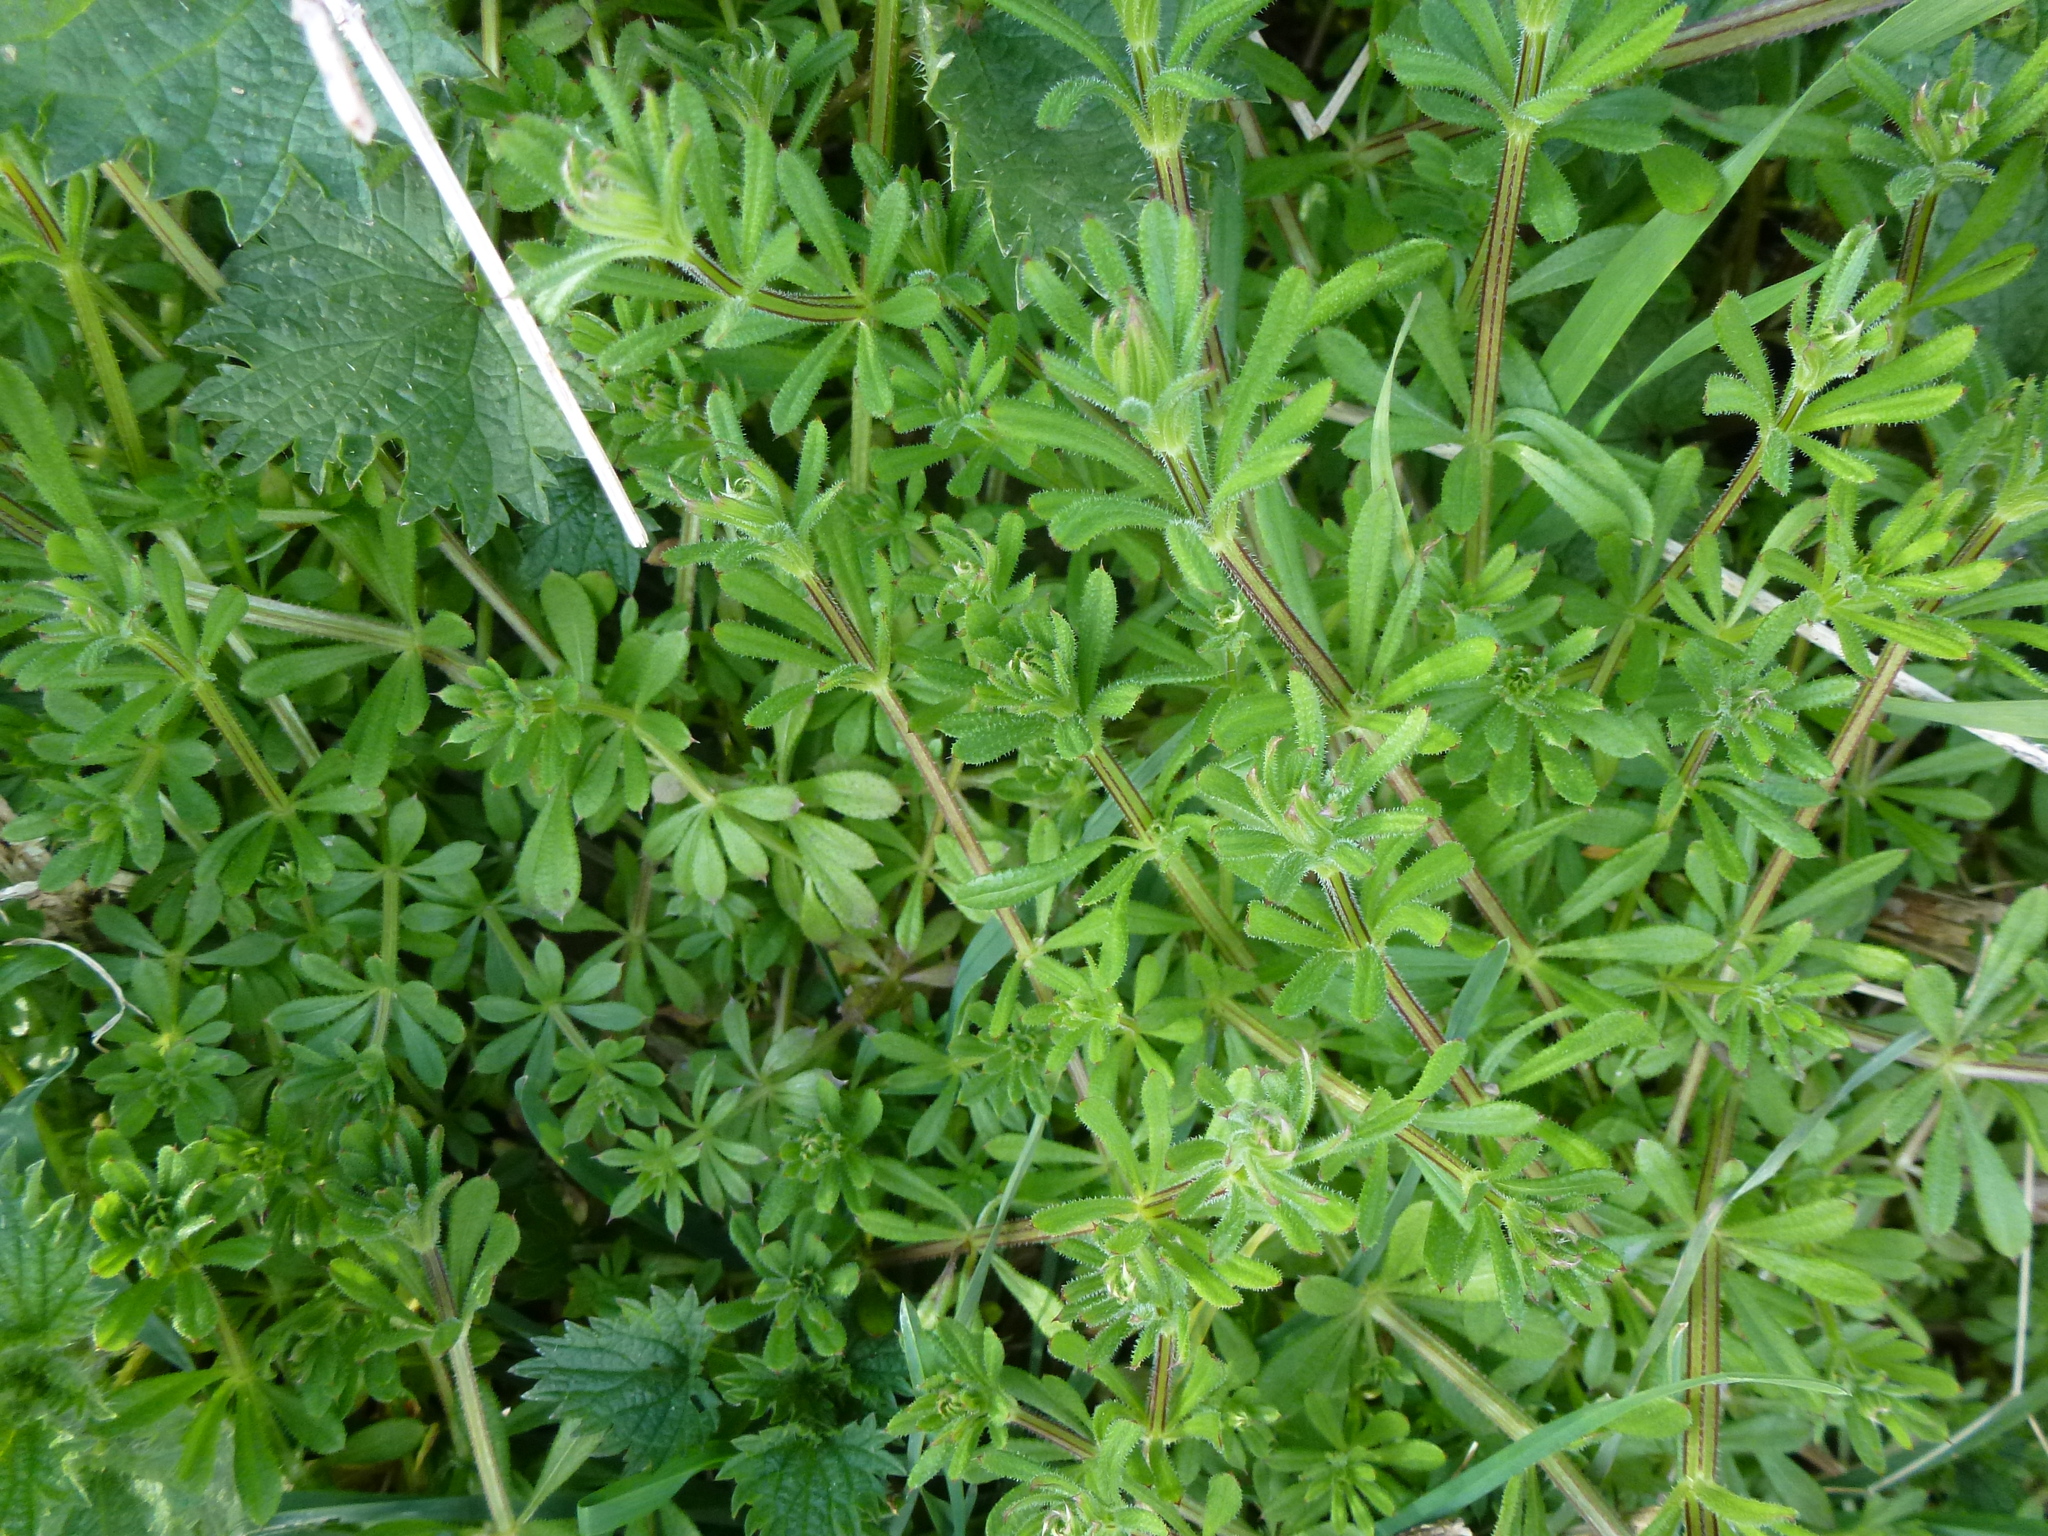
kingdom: Plantae
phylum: Tracheophyta
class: Magnoliopsida
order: Gentianales
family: Rubiaceae
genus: Galium
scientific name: Galium aparine
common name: Cleavers
